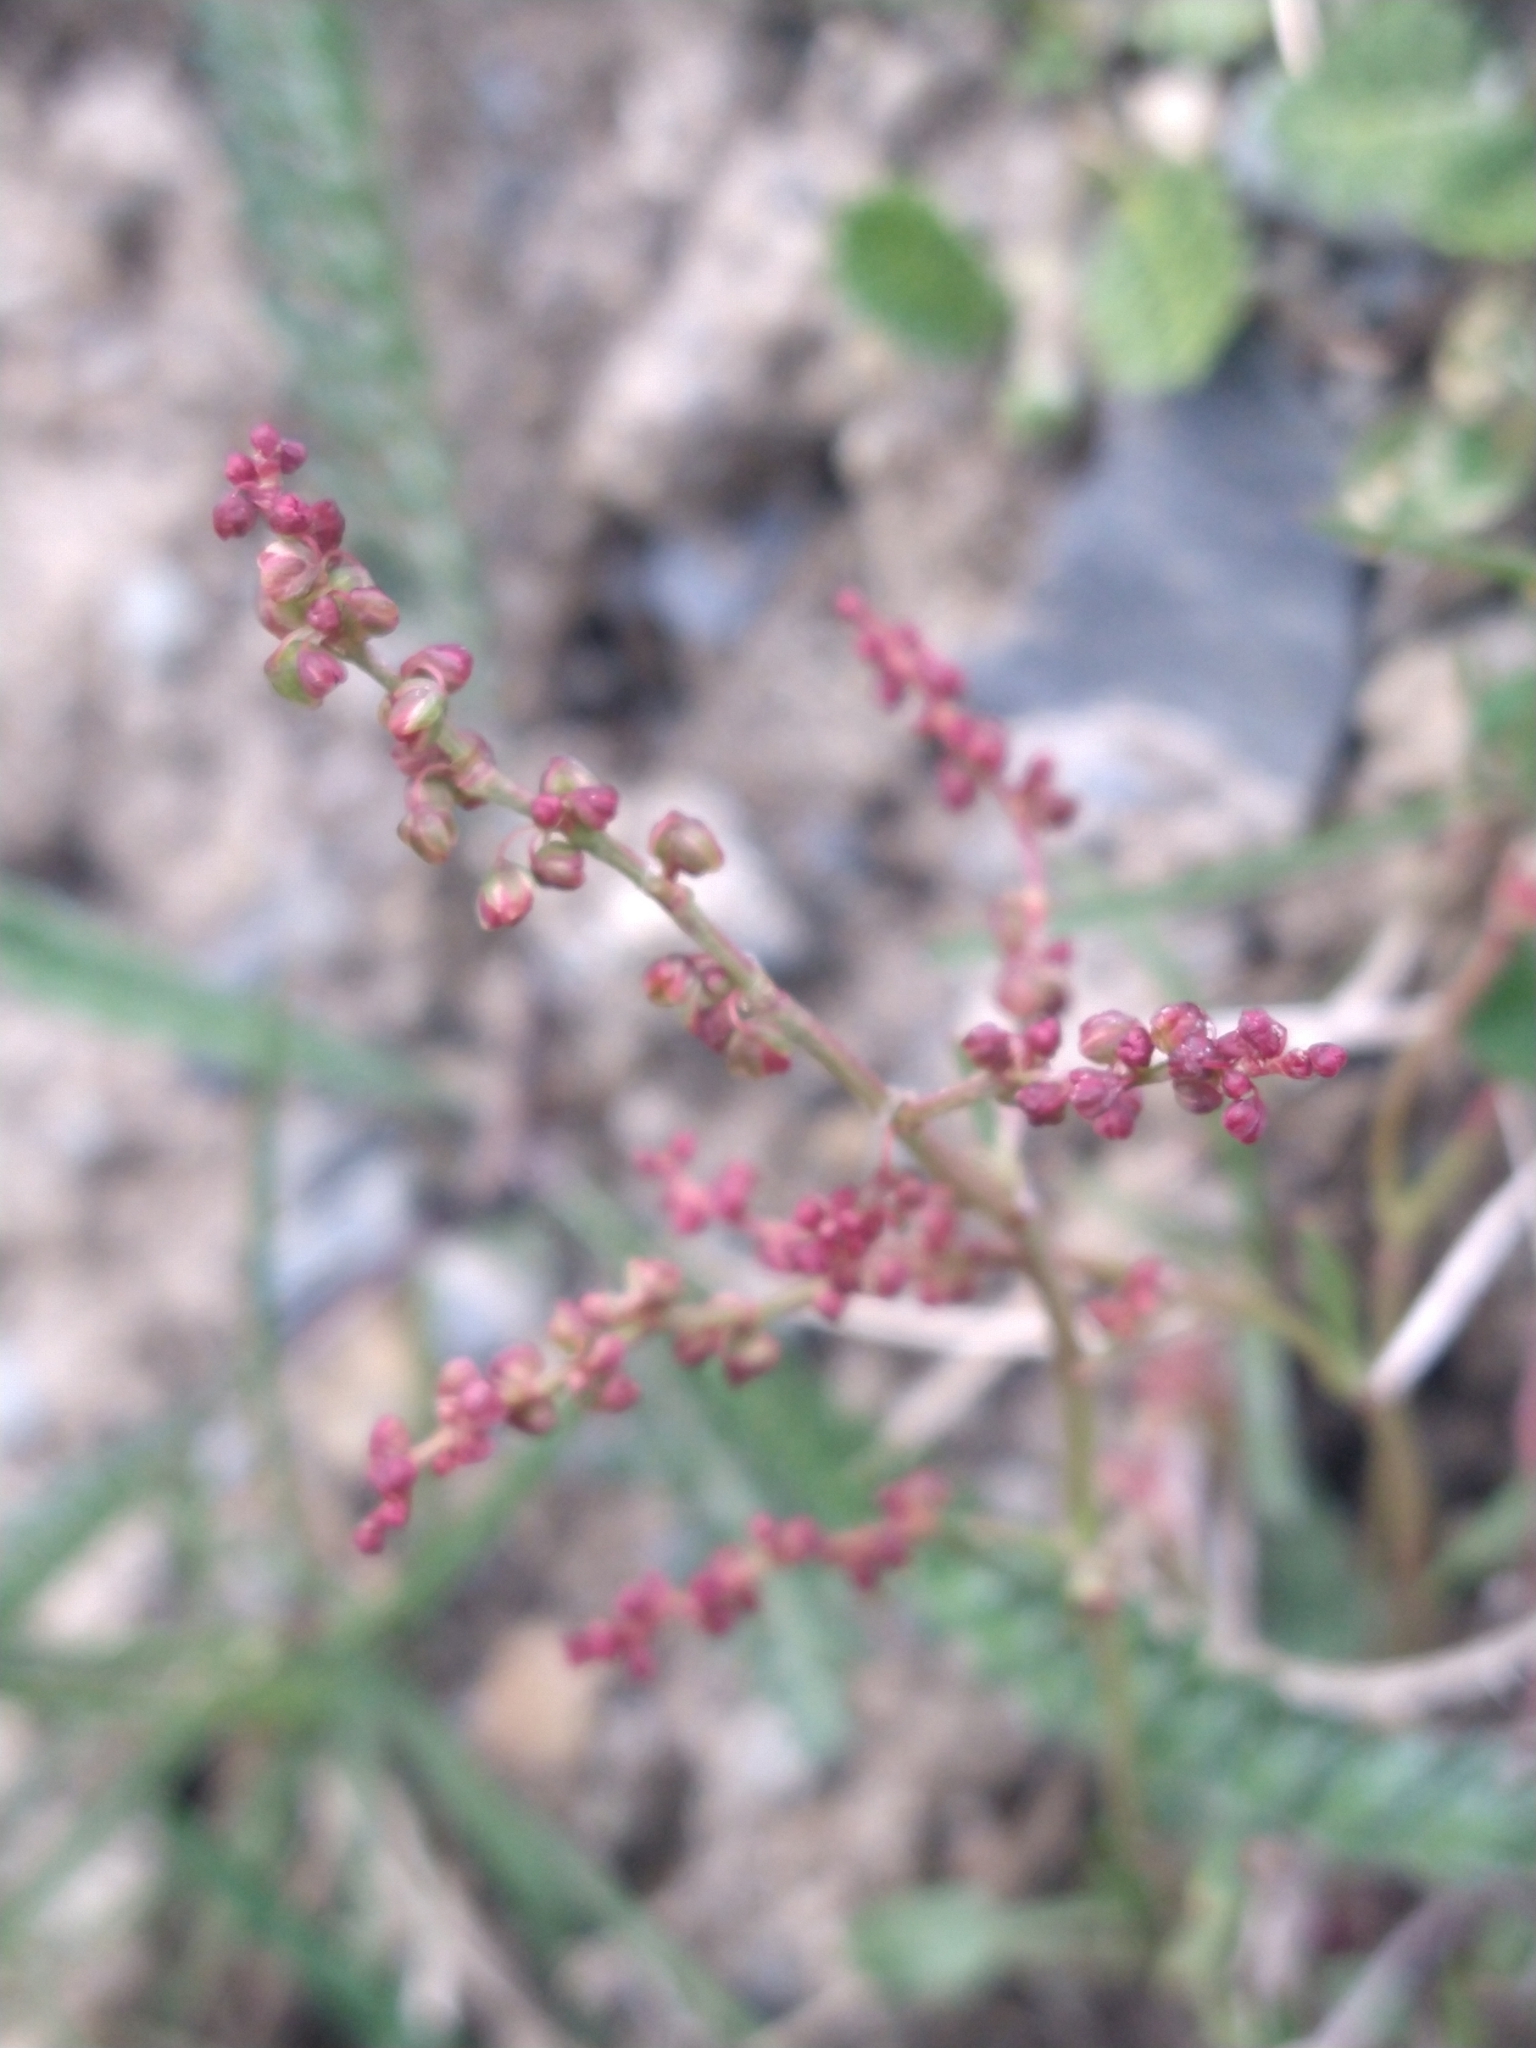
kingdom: Plantae
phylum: Tracheophyta
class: Magnoliopsida
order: Caryophyllales
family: Polygonaceae
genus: Rumex
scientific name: Rumex acetosella
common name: Common sheep sorrel
